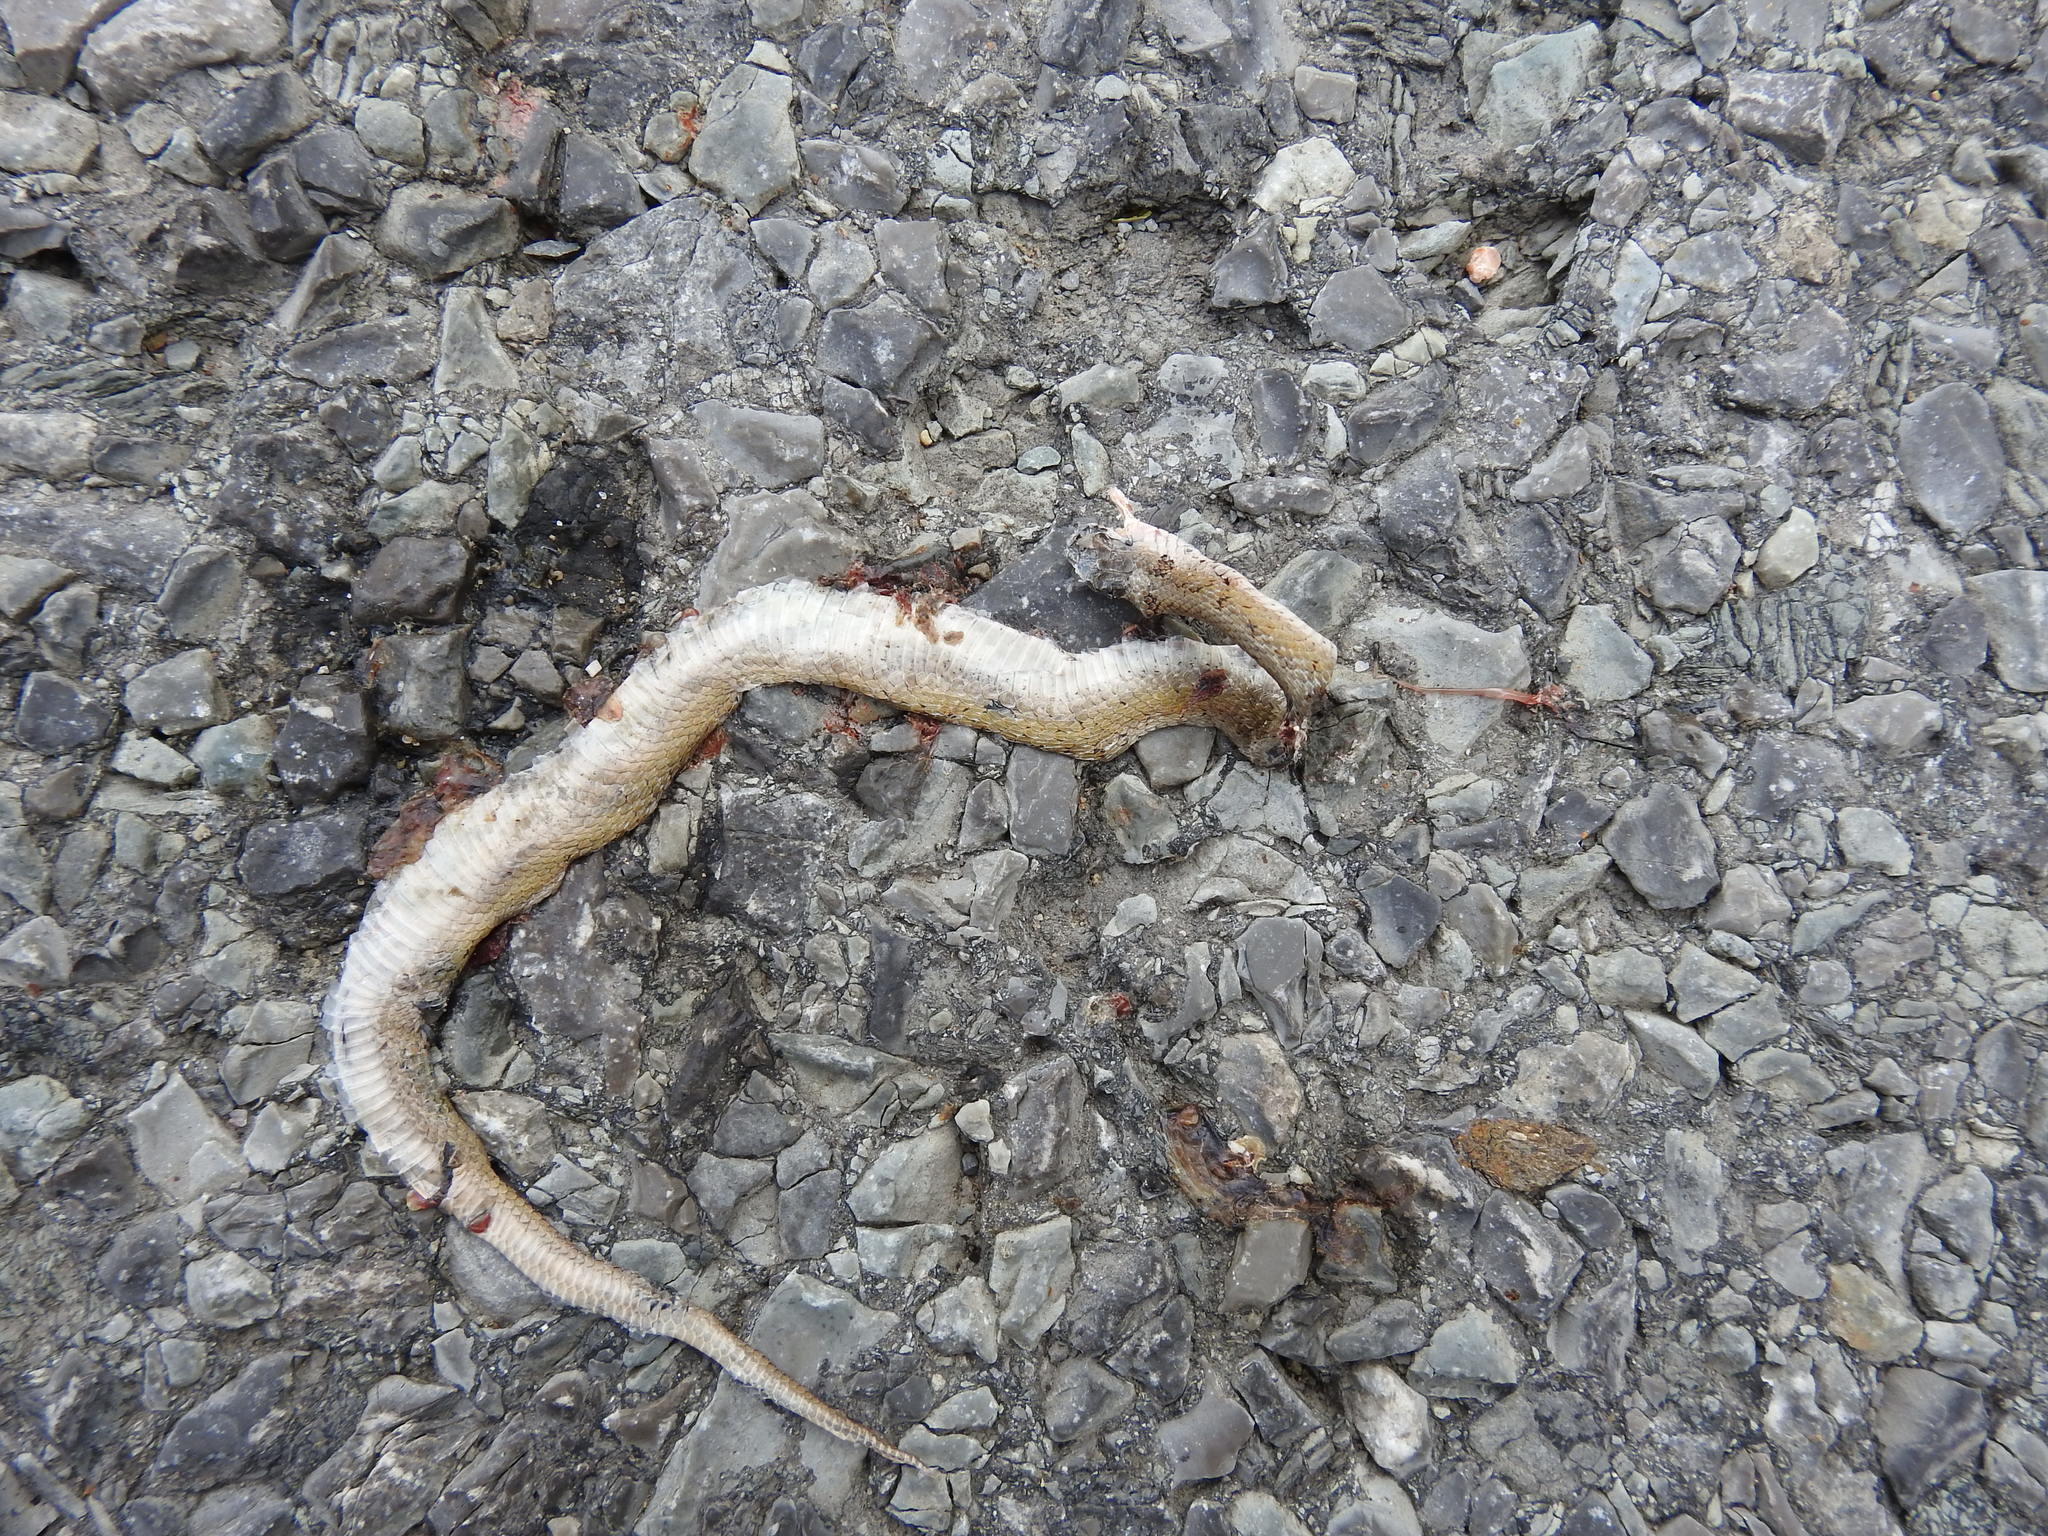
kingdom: Animalia
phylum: Chordata
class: Squamata
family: Colubridae
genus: Storeria
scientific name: Storeria dekayi
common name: (dekay’s) brown snake
